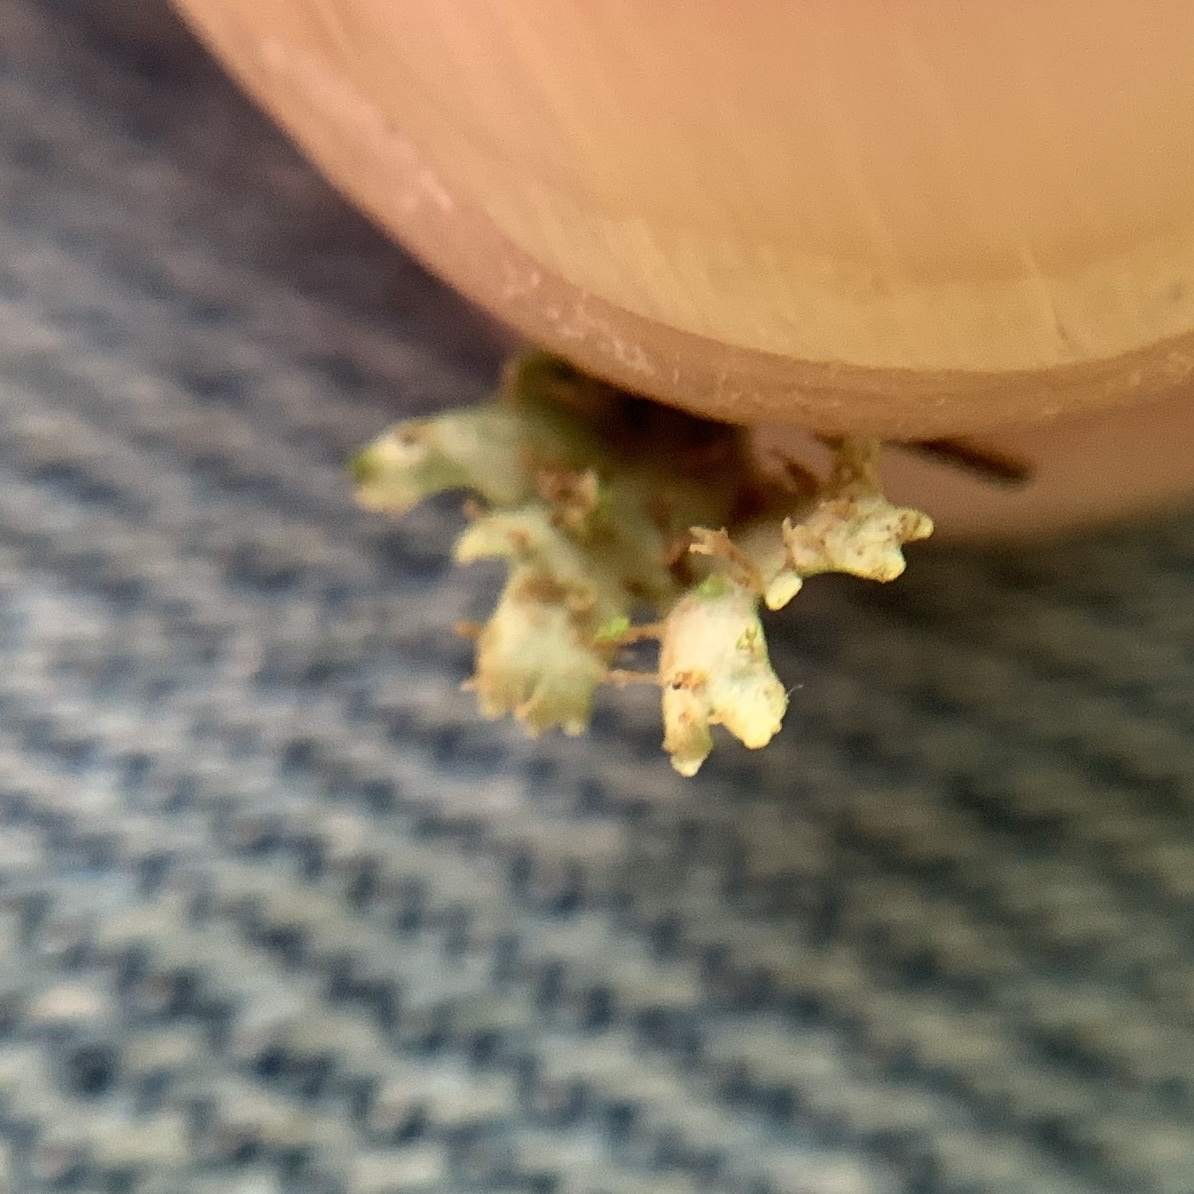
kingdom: Fungi
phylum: Ascomycota
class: Lecanoromycetes
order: Caliciales
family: Physciaceae
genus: Physcia
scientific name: Physcia leana
